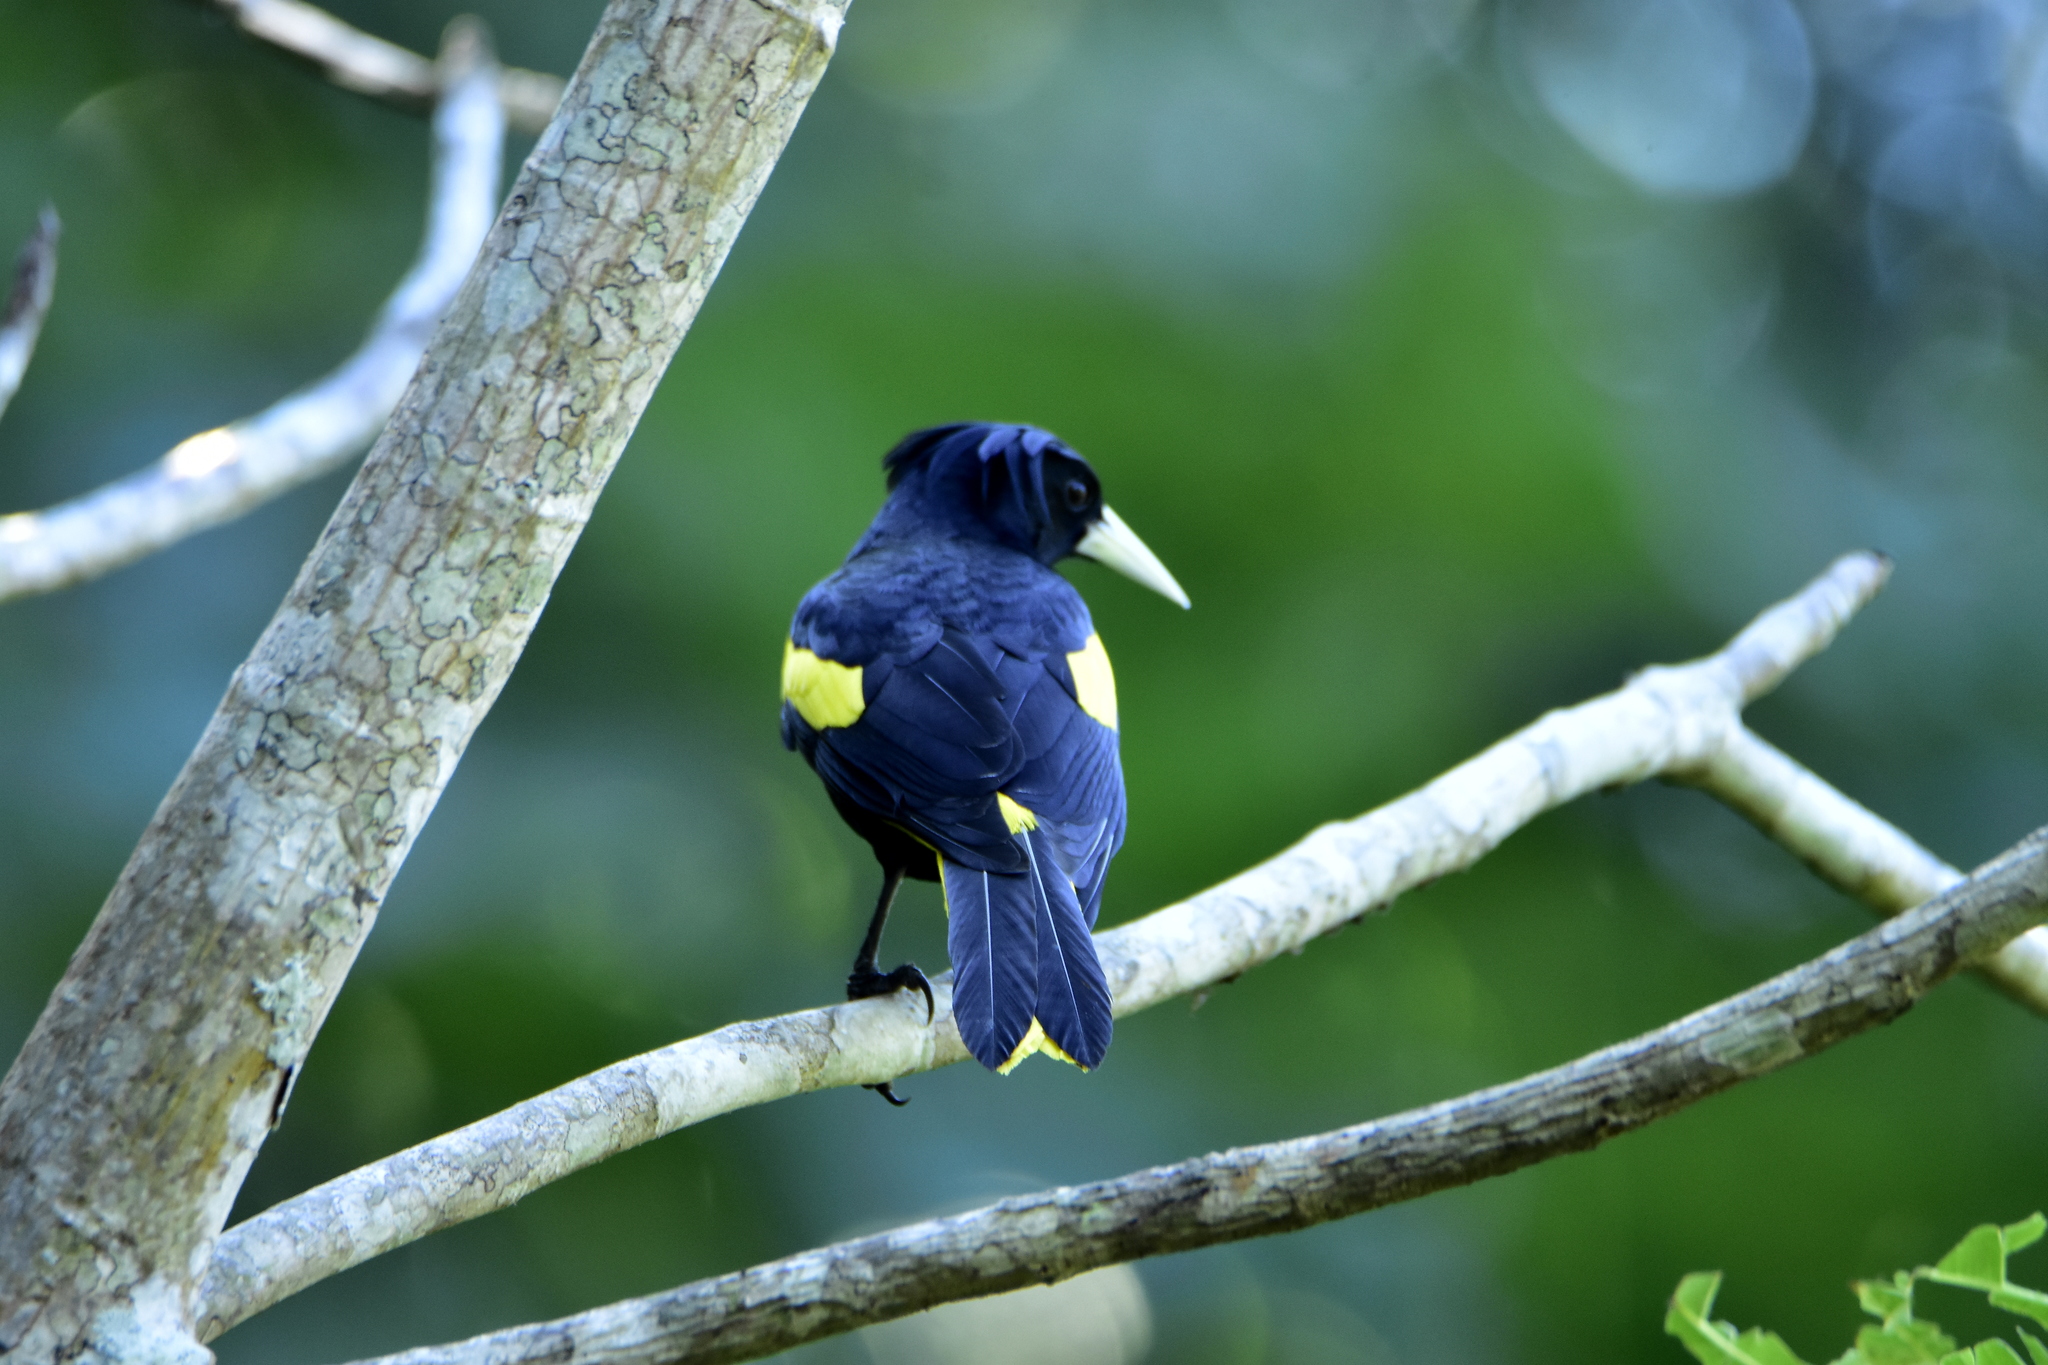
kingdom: Animalia
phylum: Chordata
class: Aves
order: Passeriformes
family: Icteridae
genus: Cacicus
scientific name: Cacicus melanicterus
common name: Yellow-winged cacique
